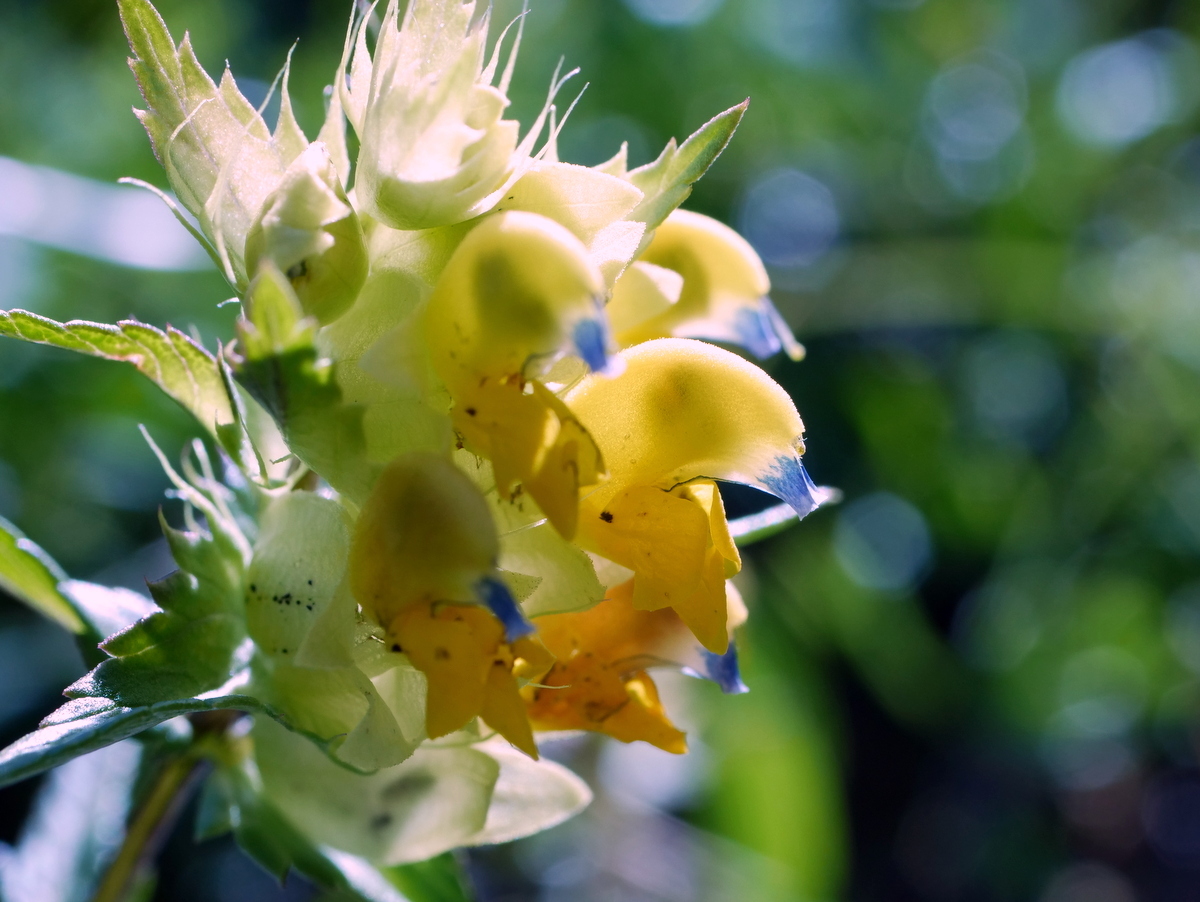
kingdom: Plantae
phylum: Tracheophyta
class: Magnoliopsida
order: Lamiales
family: Orobanchaceae
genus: Rhinanthus
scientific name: Rhinanthus glacialis
